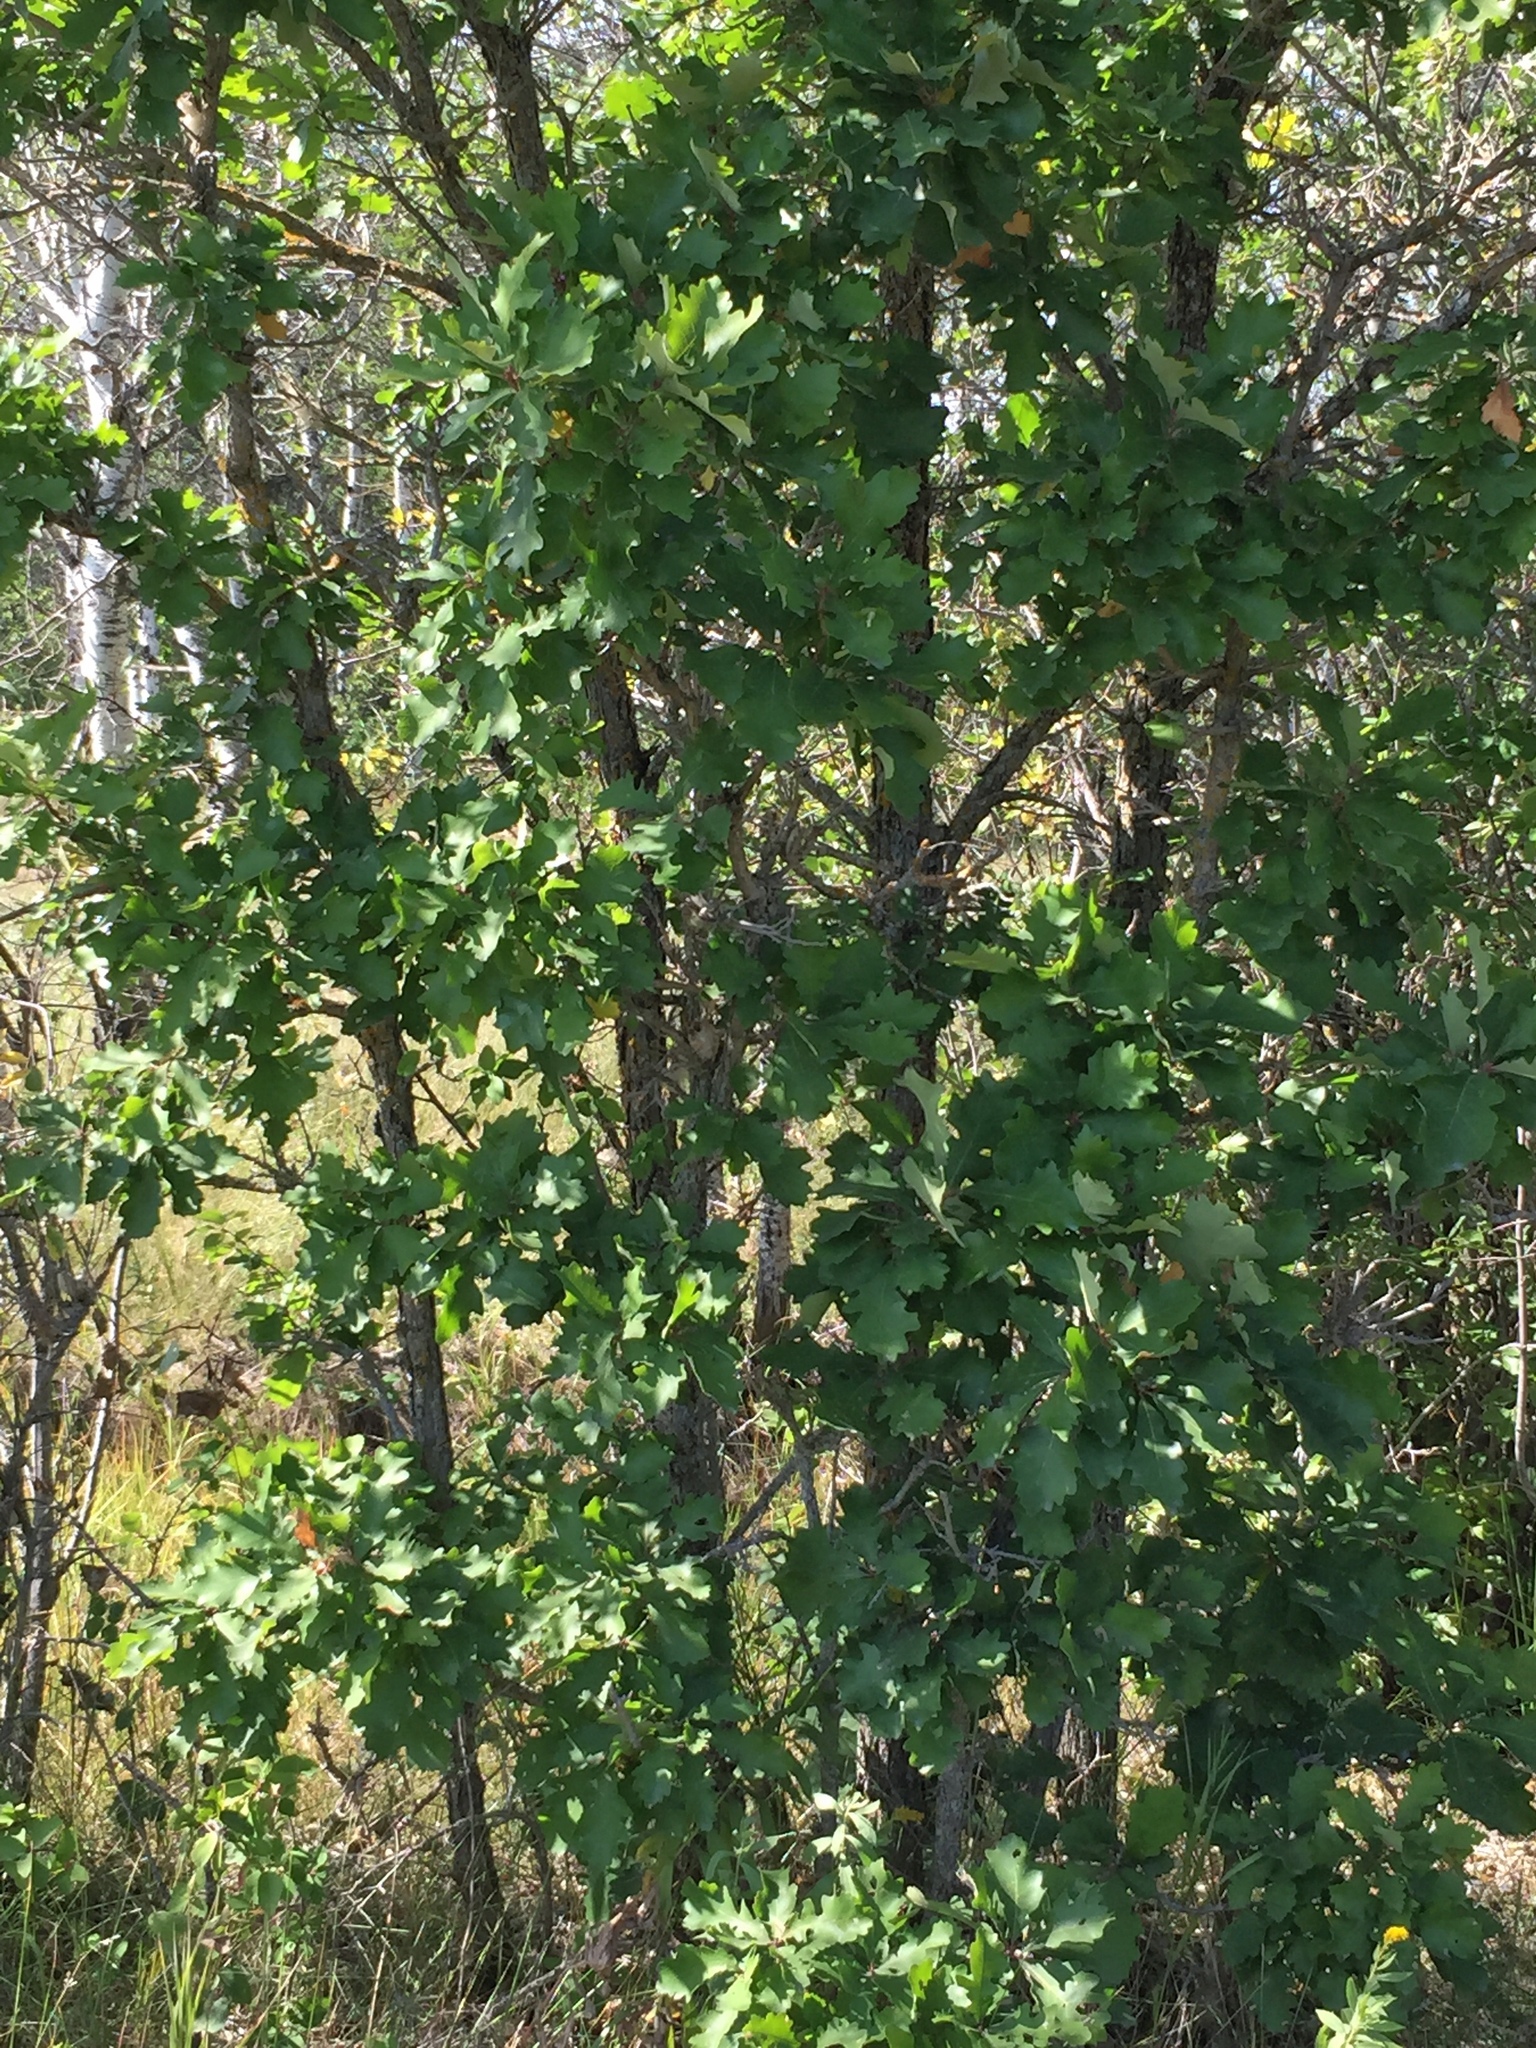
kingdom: Plantae
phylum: Tracheophyta
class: Magnoliopsida
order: Fagales
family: Fagaceae
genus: Quercus
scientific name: Quercus macrocarpa
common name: Bur oak
